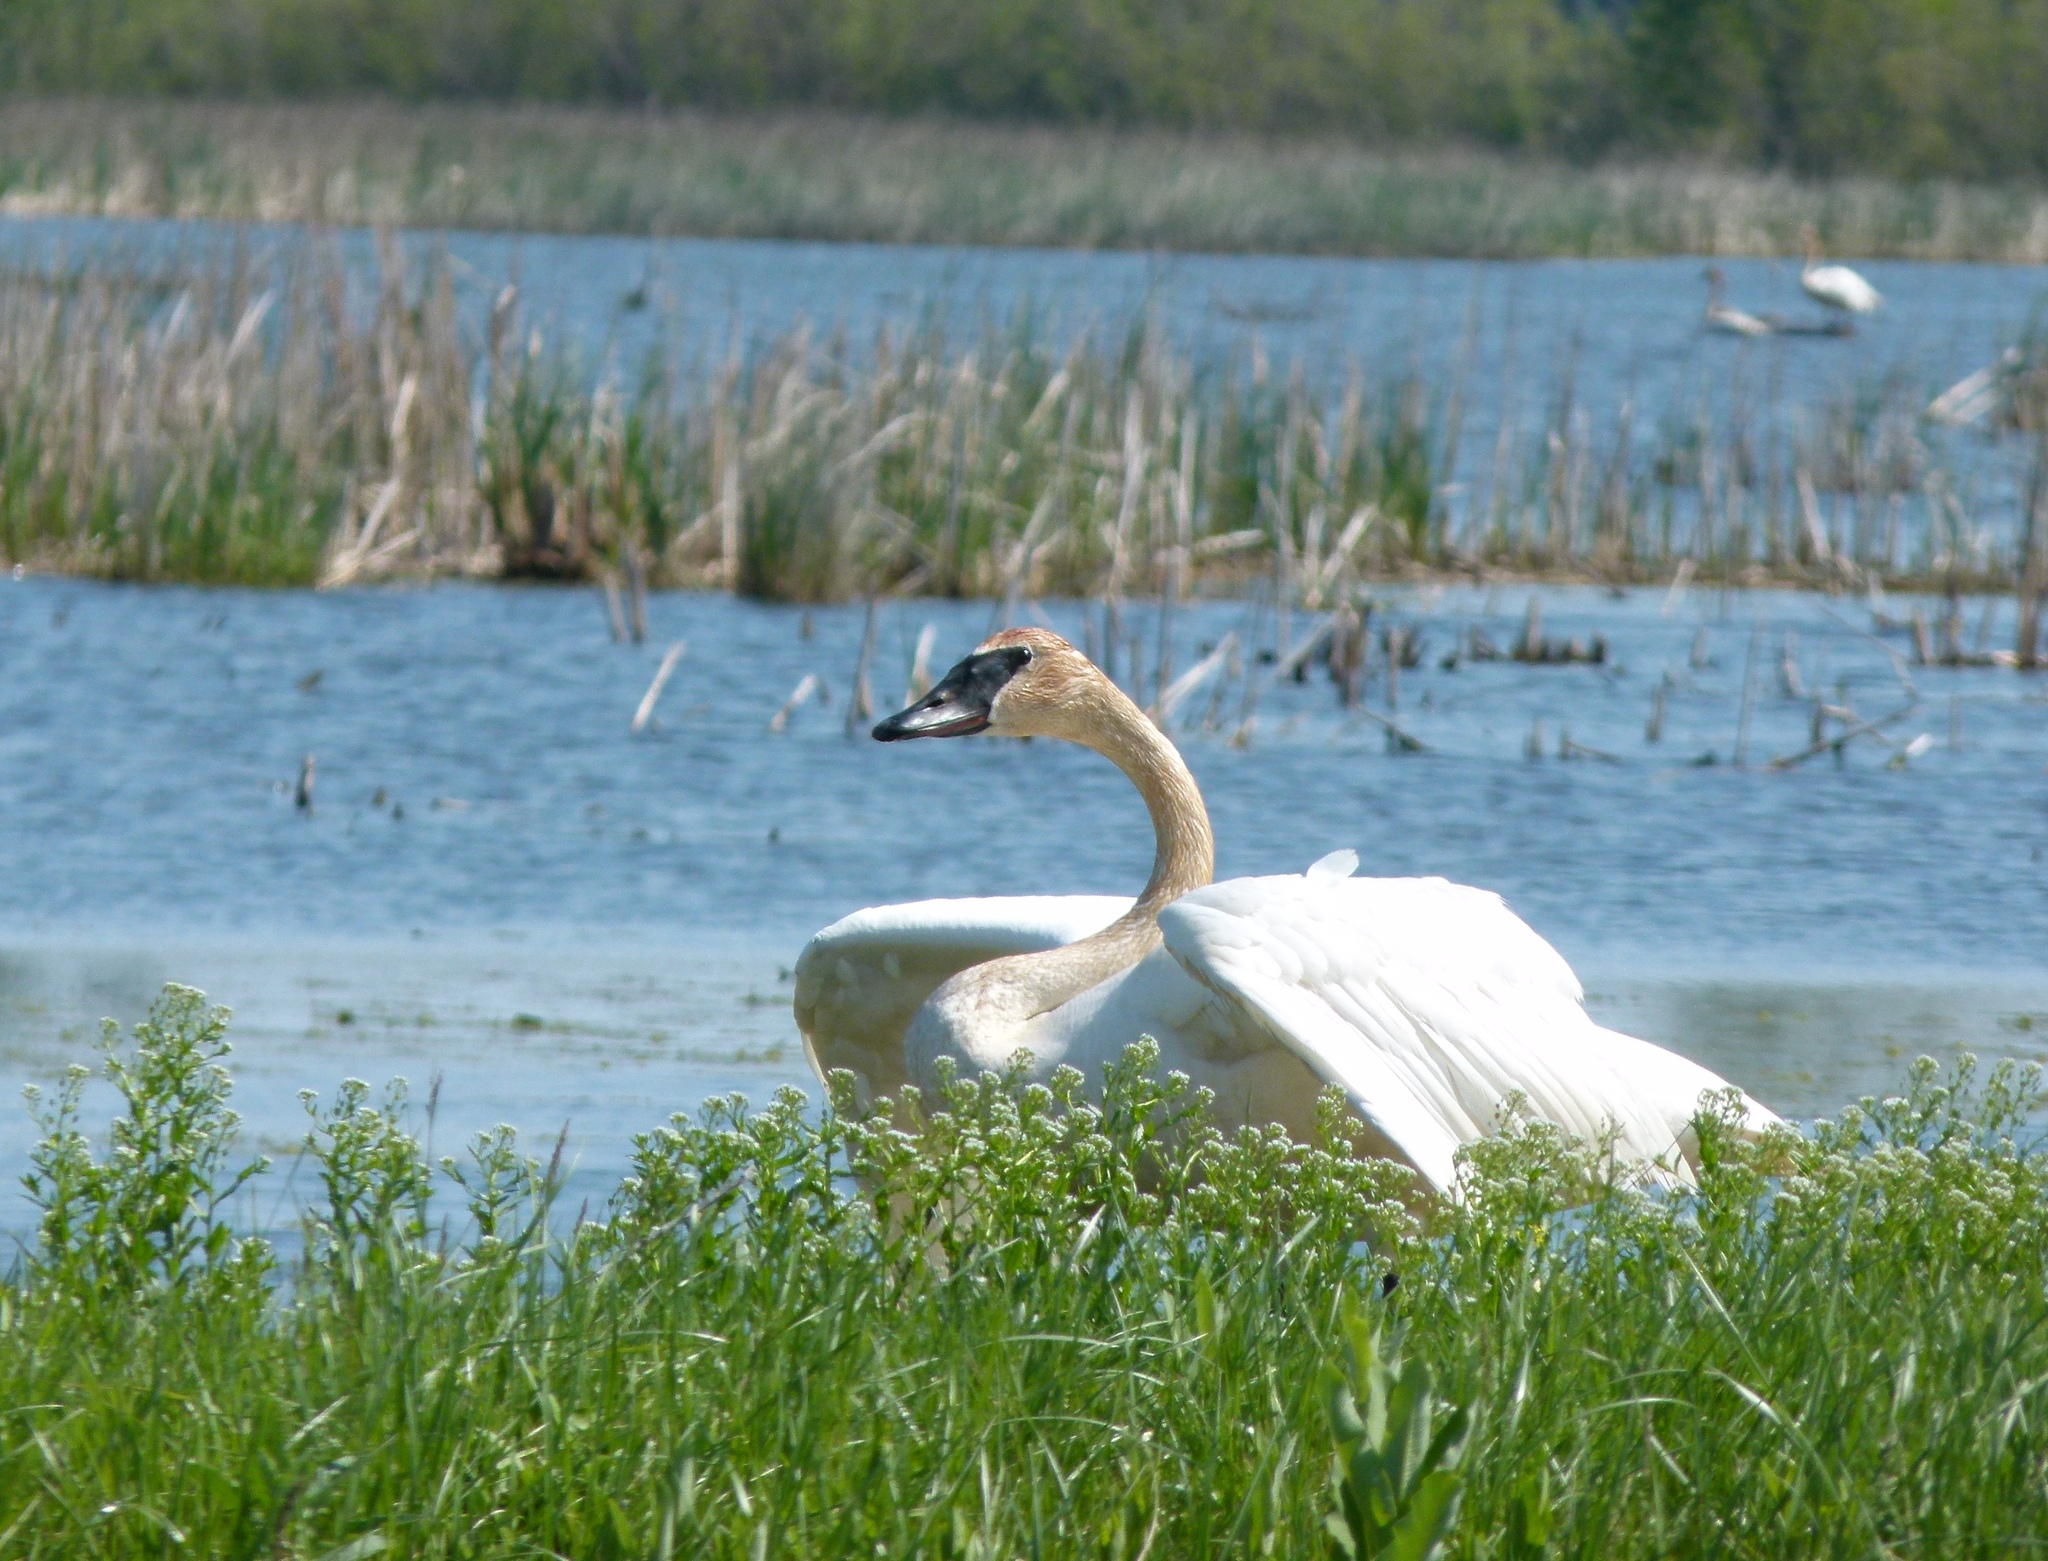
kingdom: Animalia
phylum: Chordata
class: Aves
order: Anseriformes
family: Anatidae
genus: Cygnus
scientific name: Cygnus buccinator
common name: Trumpeter swan
